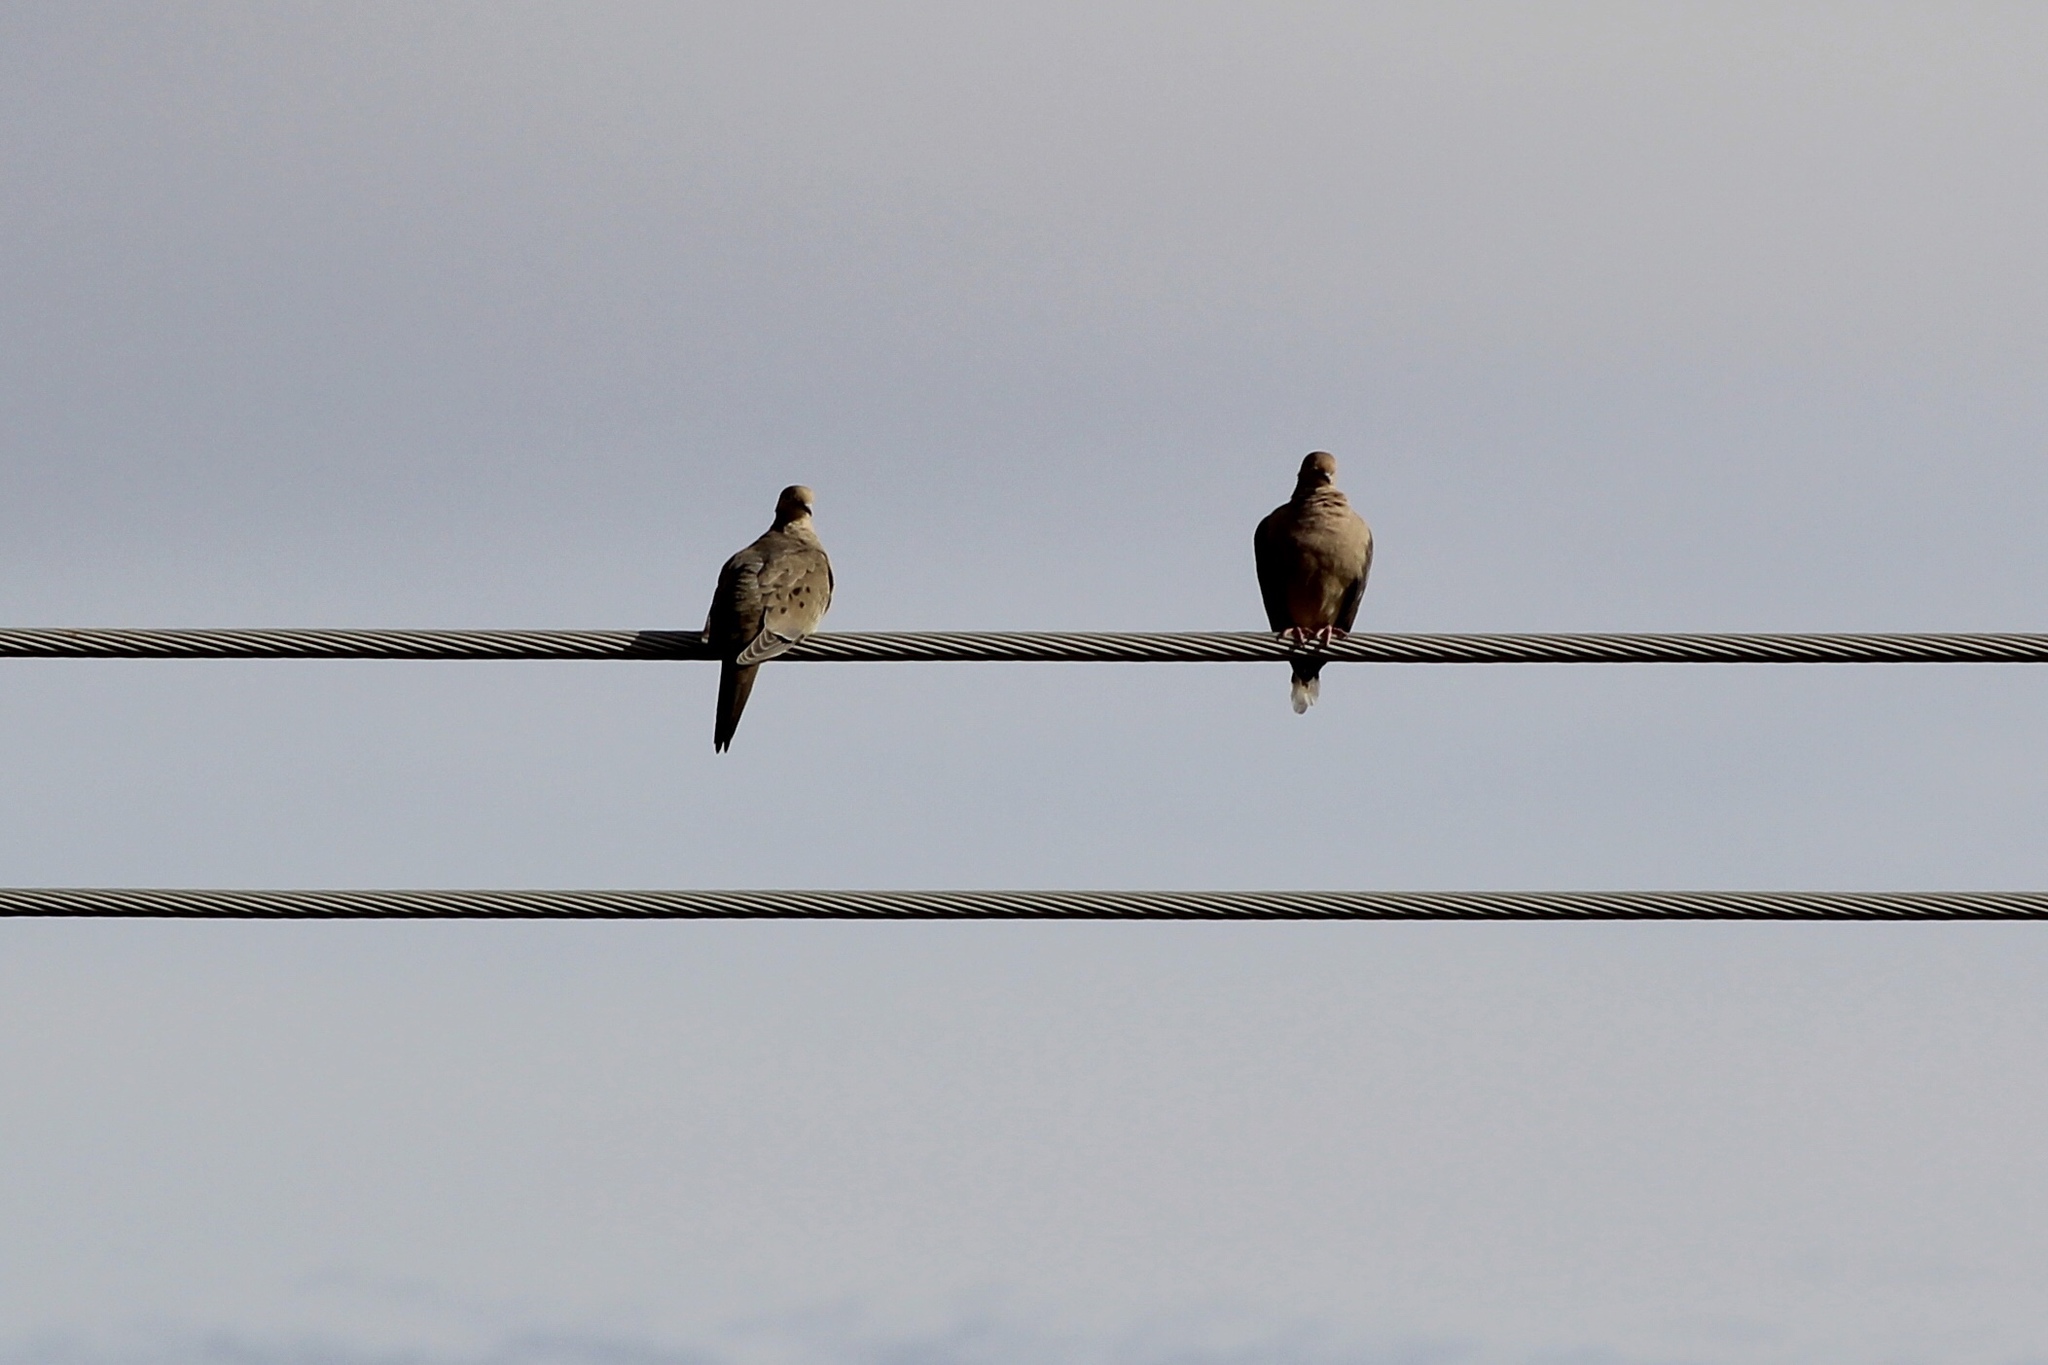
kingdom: Animalia
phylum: Chordata
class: Aves
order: Columbiformes
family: Columbidae
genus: Zenaida
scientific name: Zenaida macroura
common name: Mourning dove
